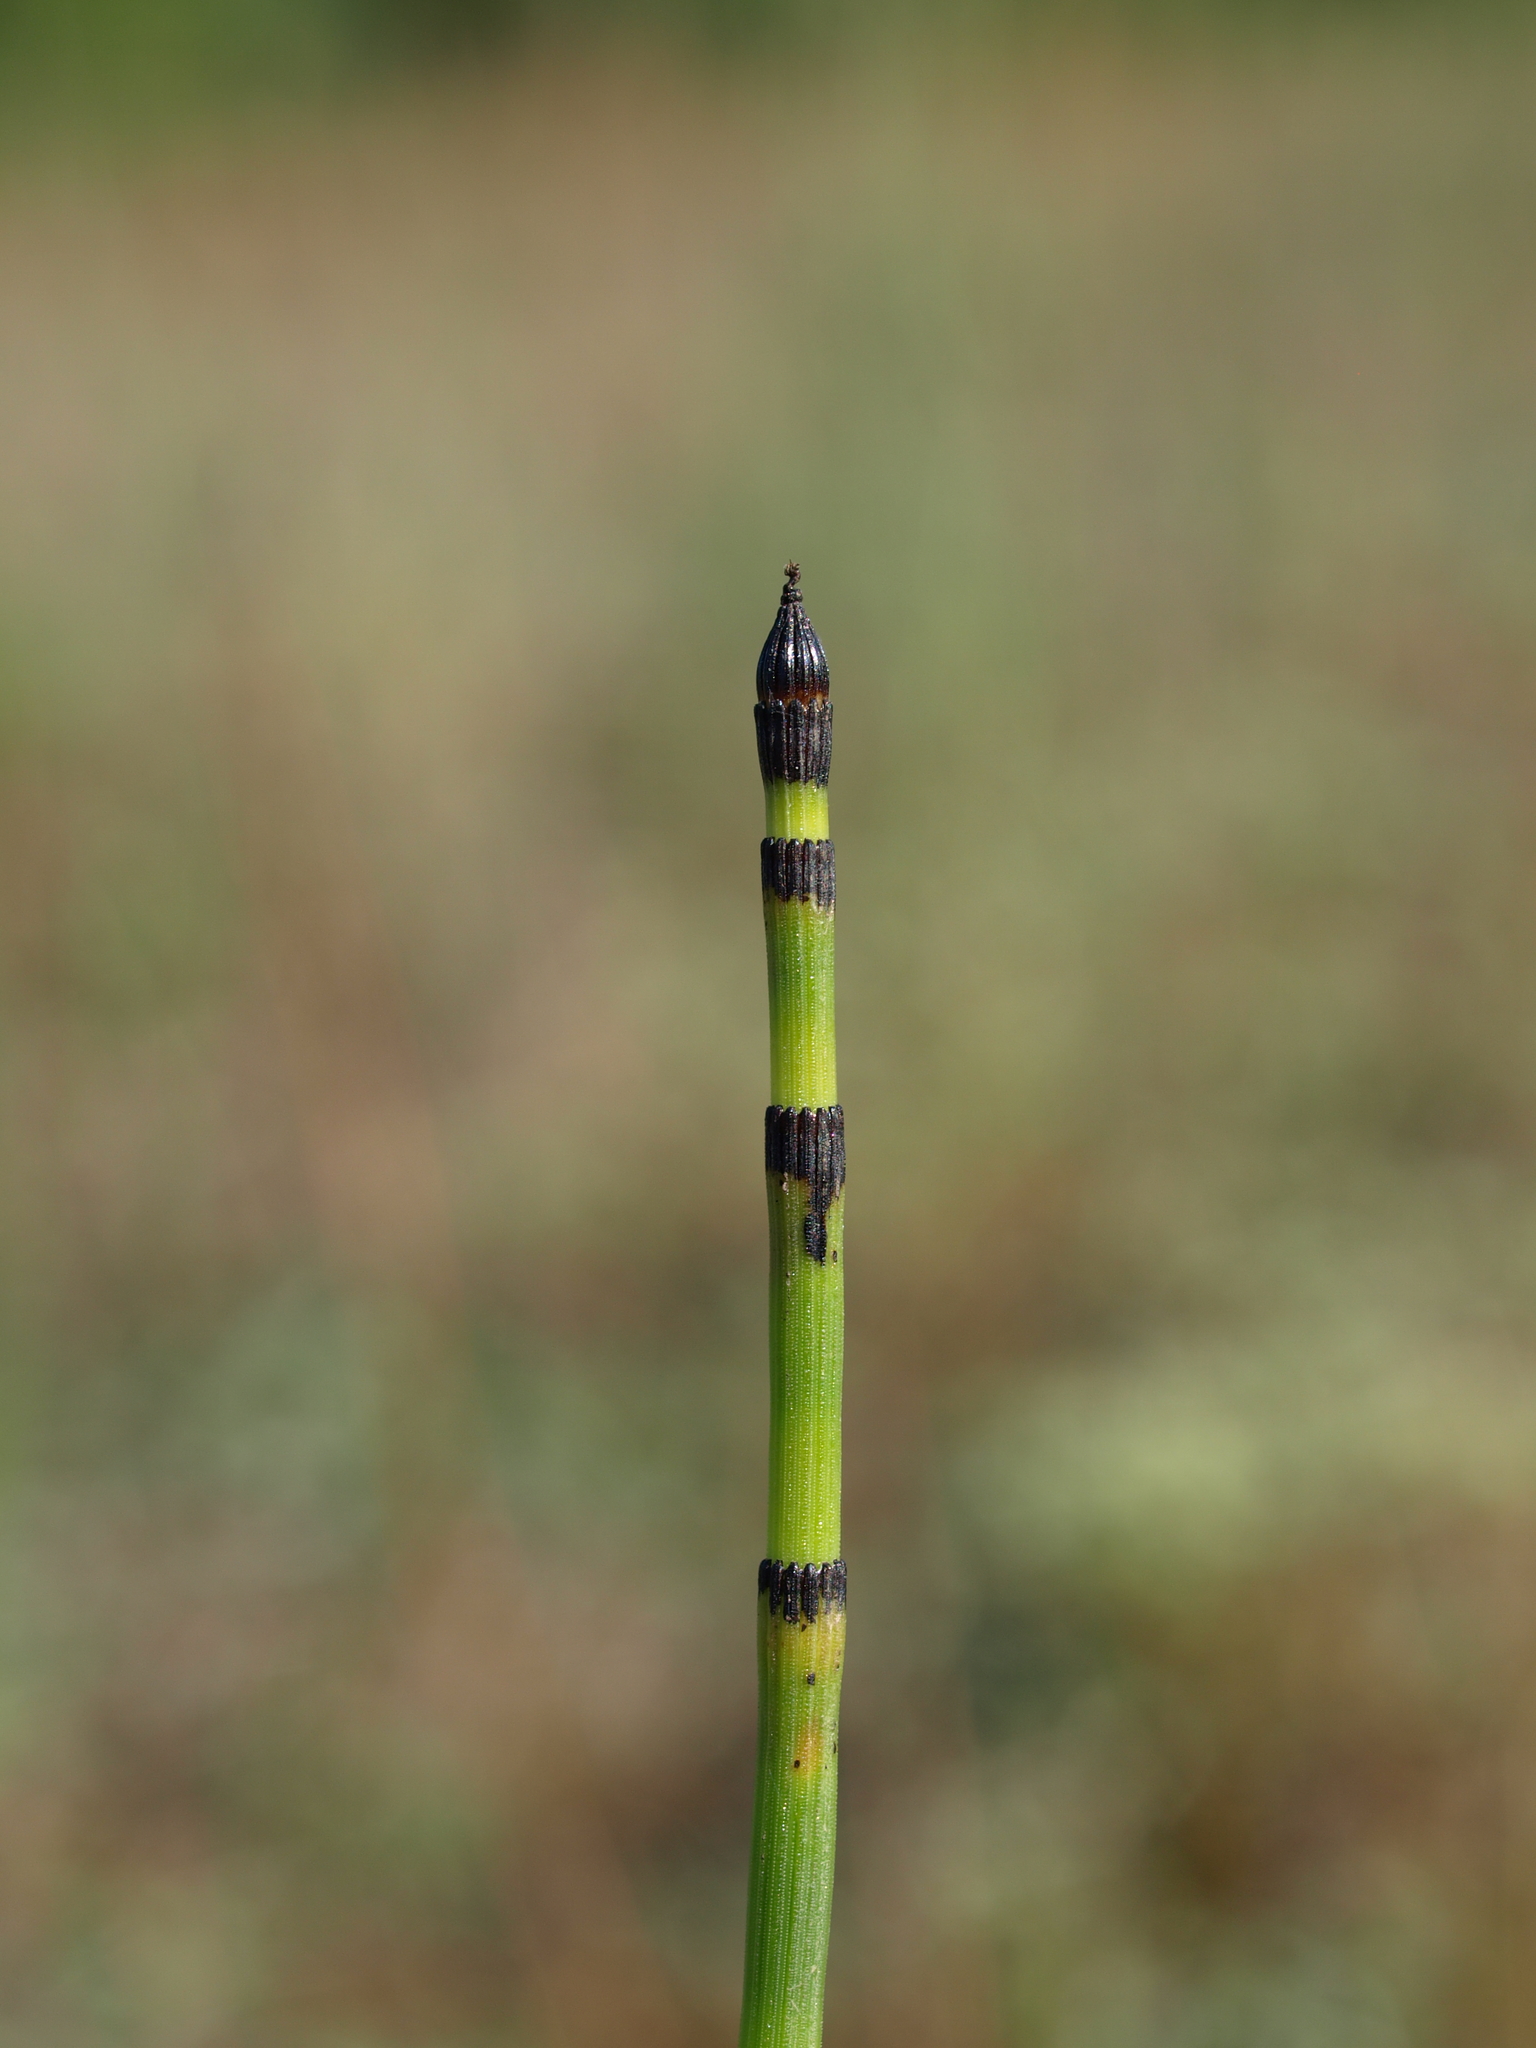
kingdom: Plantae
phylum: Tracheophyta
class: Polypodiopsida
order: Equisetales
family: Equisetaceae
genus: Equisetum
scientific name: Equisetum hyemale
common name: Rough horsetail
